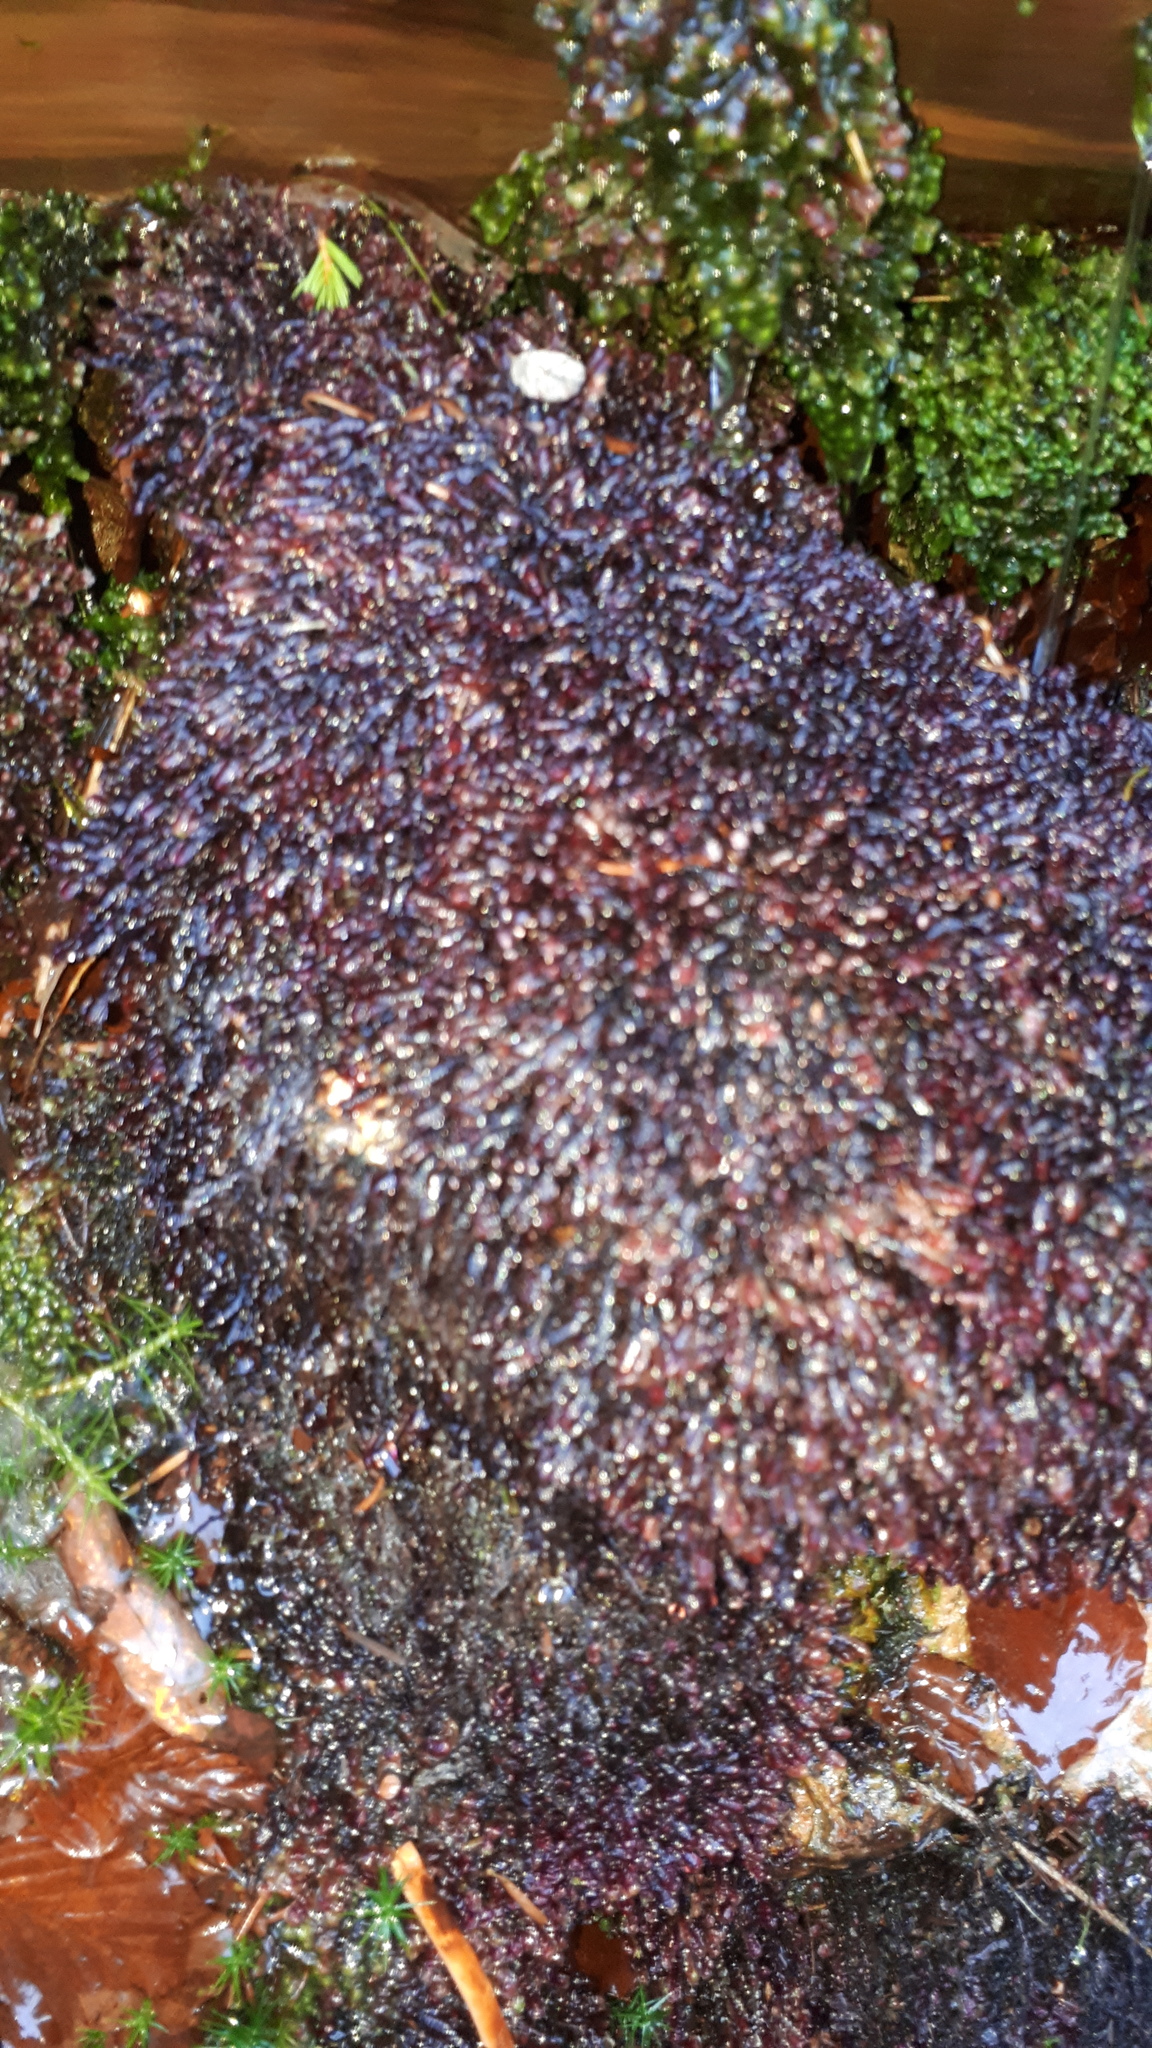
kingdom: Plantae
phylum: Marchantiophyta
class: Jungermanniopsida
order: Jungermanniales
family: Scapaniaceae
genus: Scapania
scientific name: Scapania undulata
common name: Water earwort
